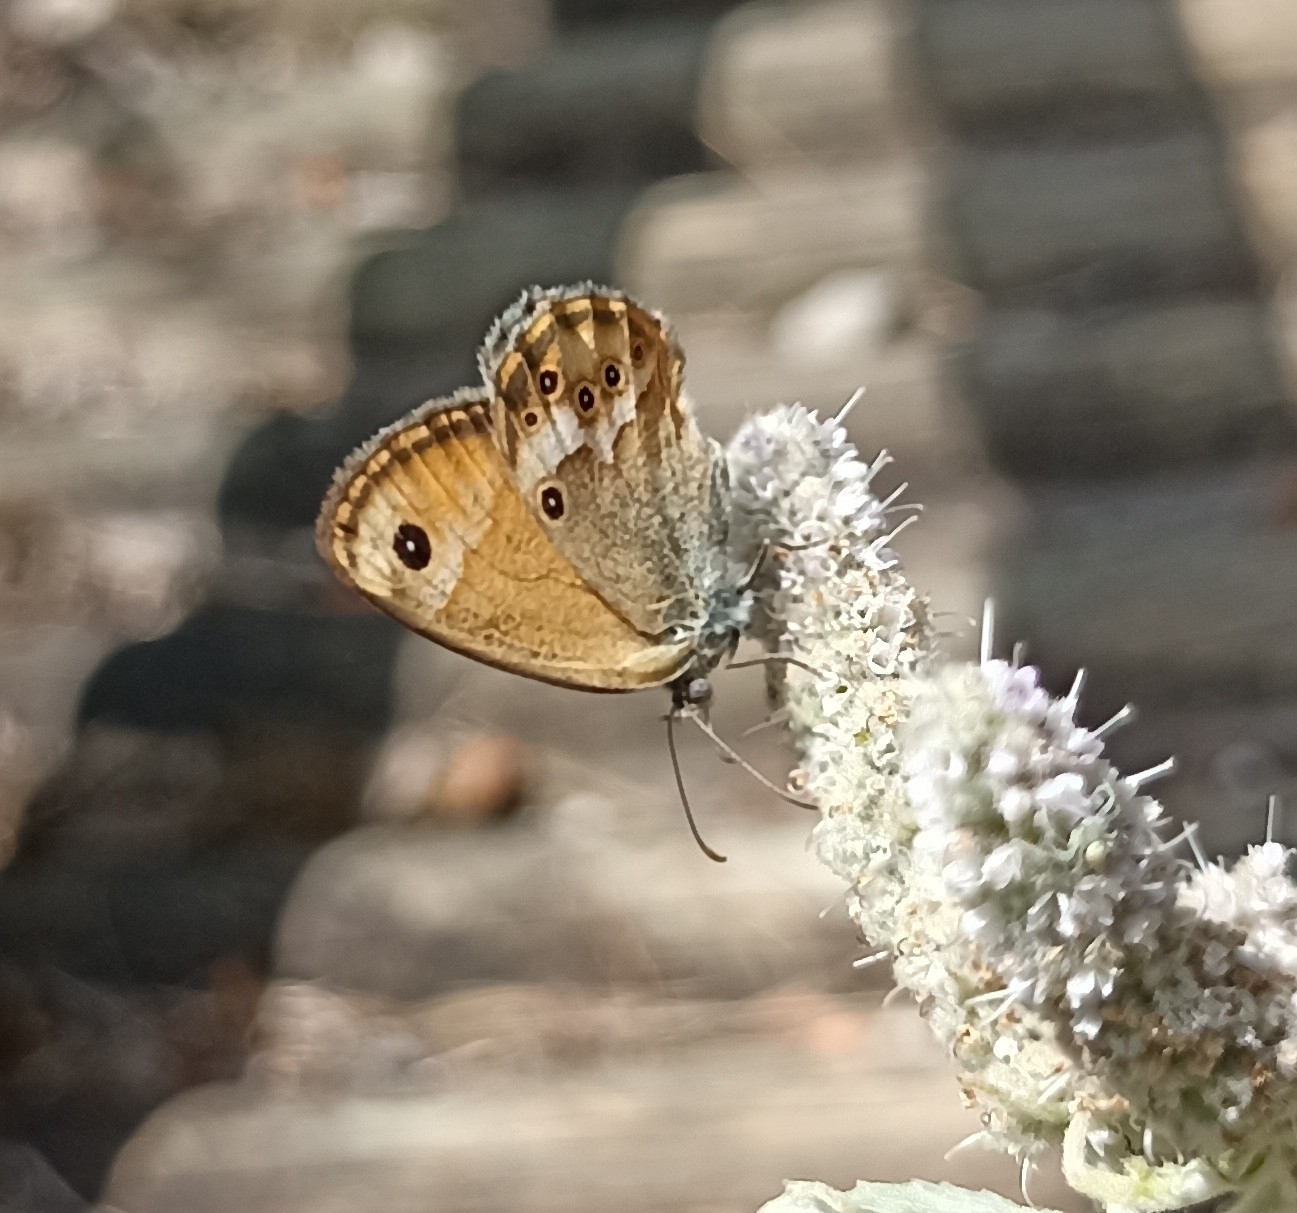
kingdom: Animalia
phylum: Arthropoda
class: Insecta
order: Lepidoptera
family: Nymphalidae
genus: Coenonympha
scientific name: Coenonympha dorus
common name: Dusky heath
